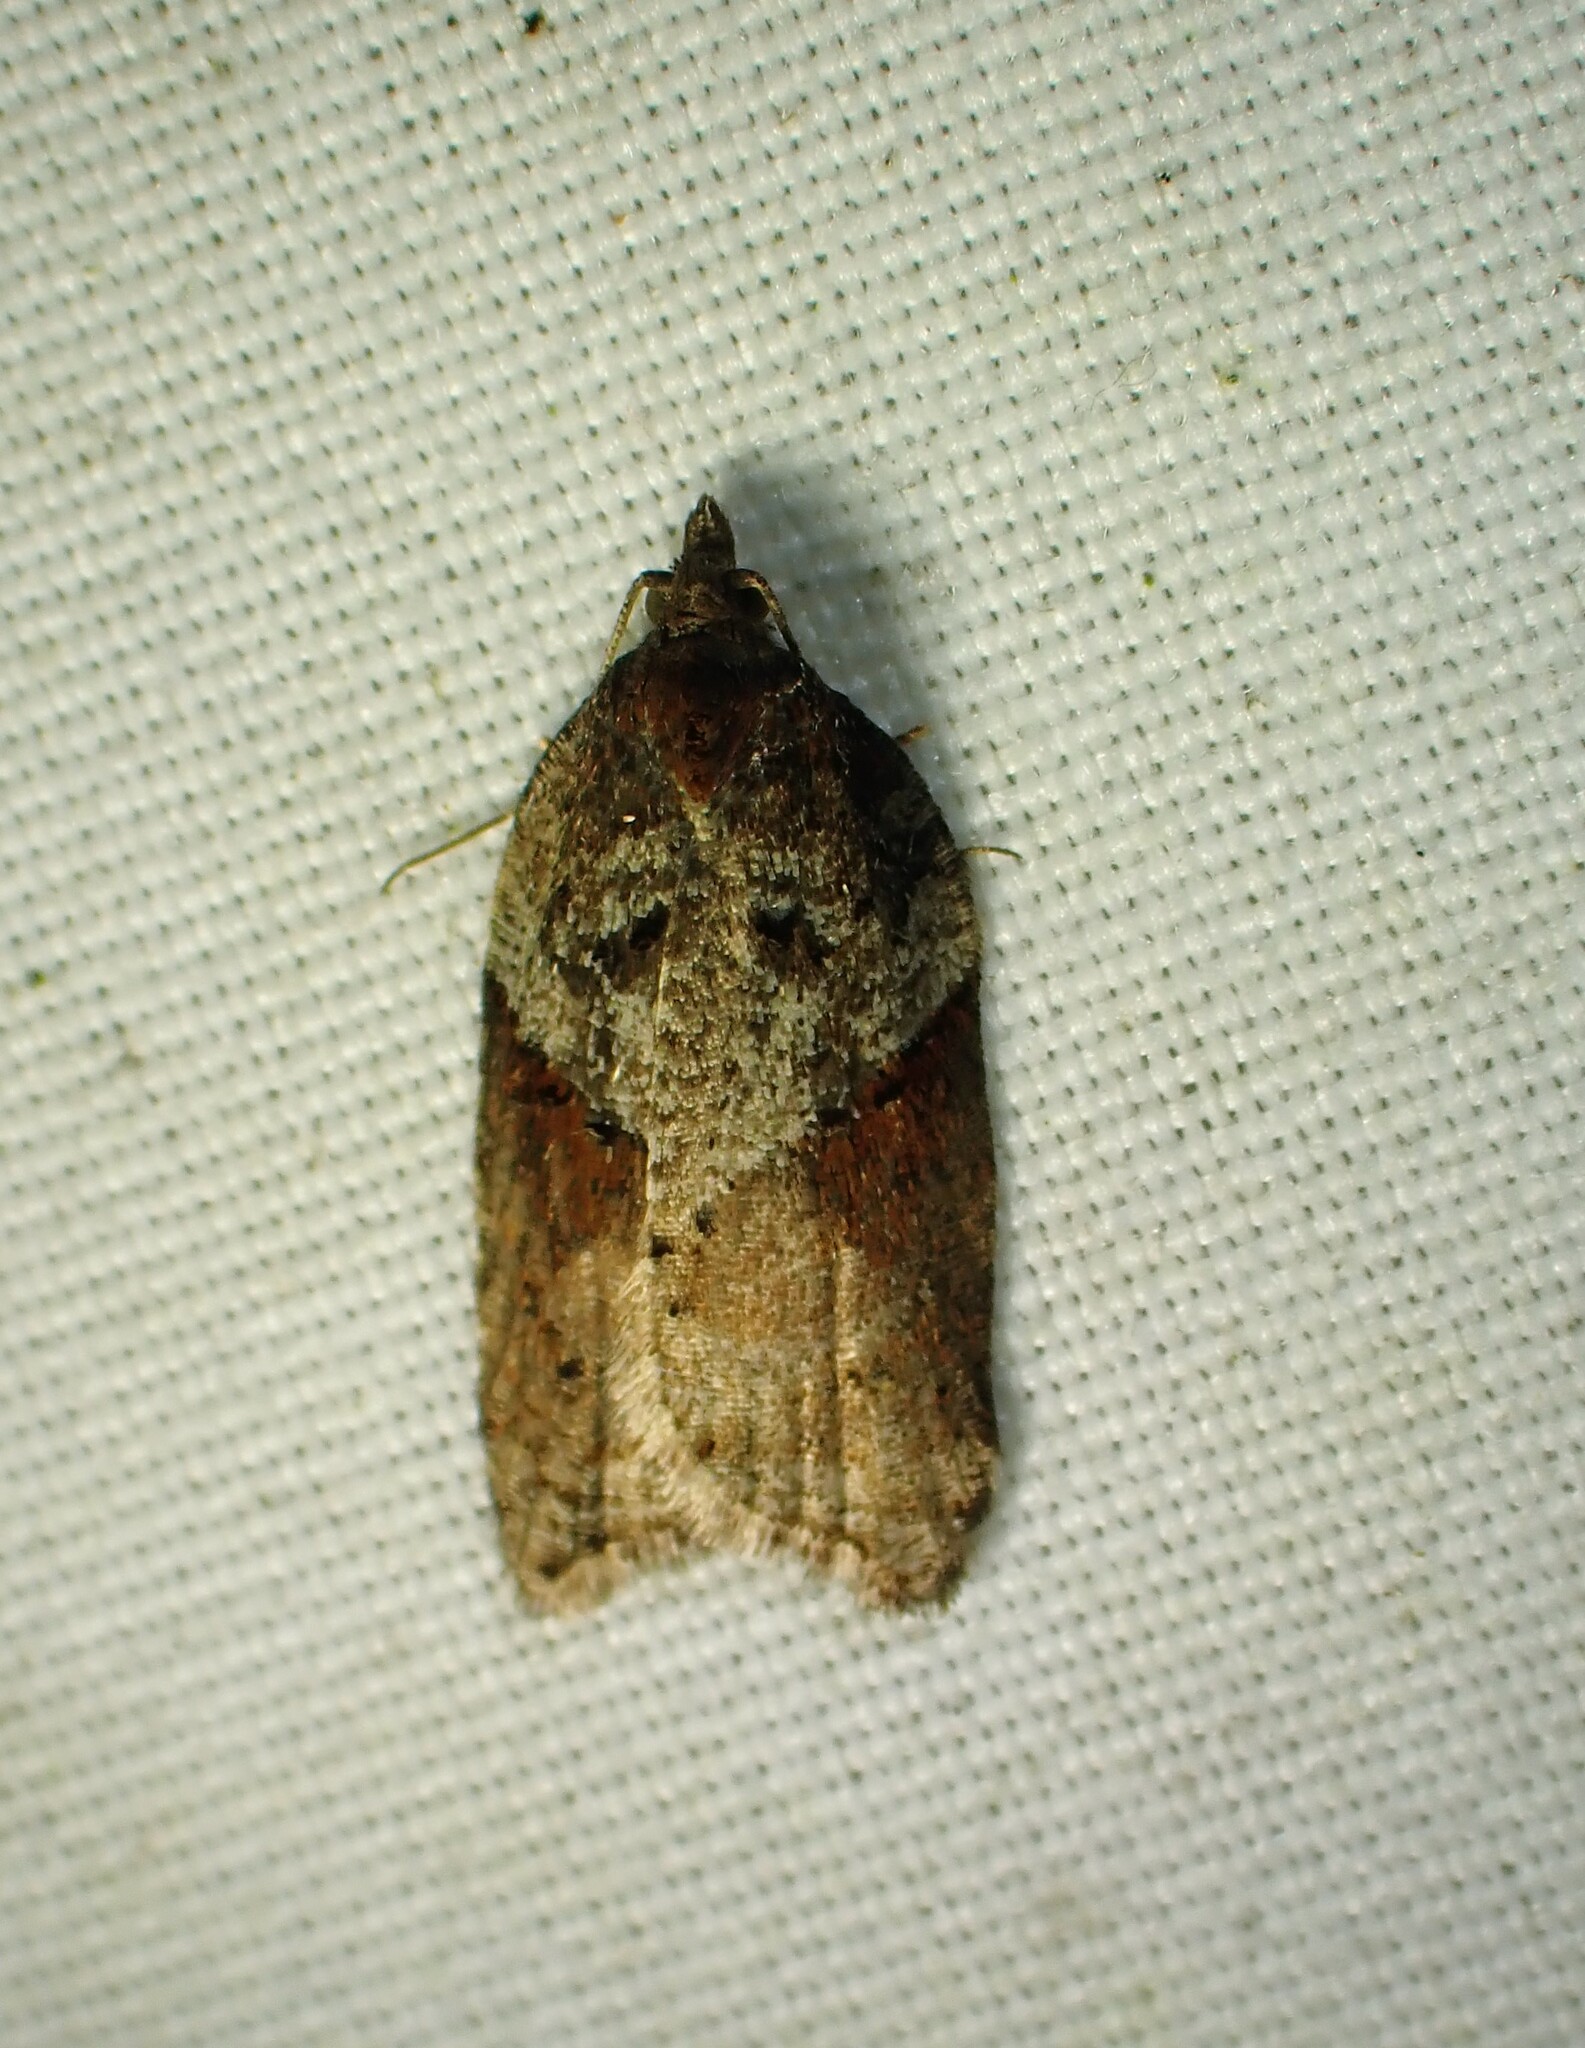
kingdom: Animalia
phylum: Arthropoda
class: Insecta
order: Lepidoptera
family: Tortricidae
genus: Acleris
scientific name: Acleris macdunnoughi
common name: Macdunnough's acleris
